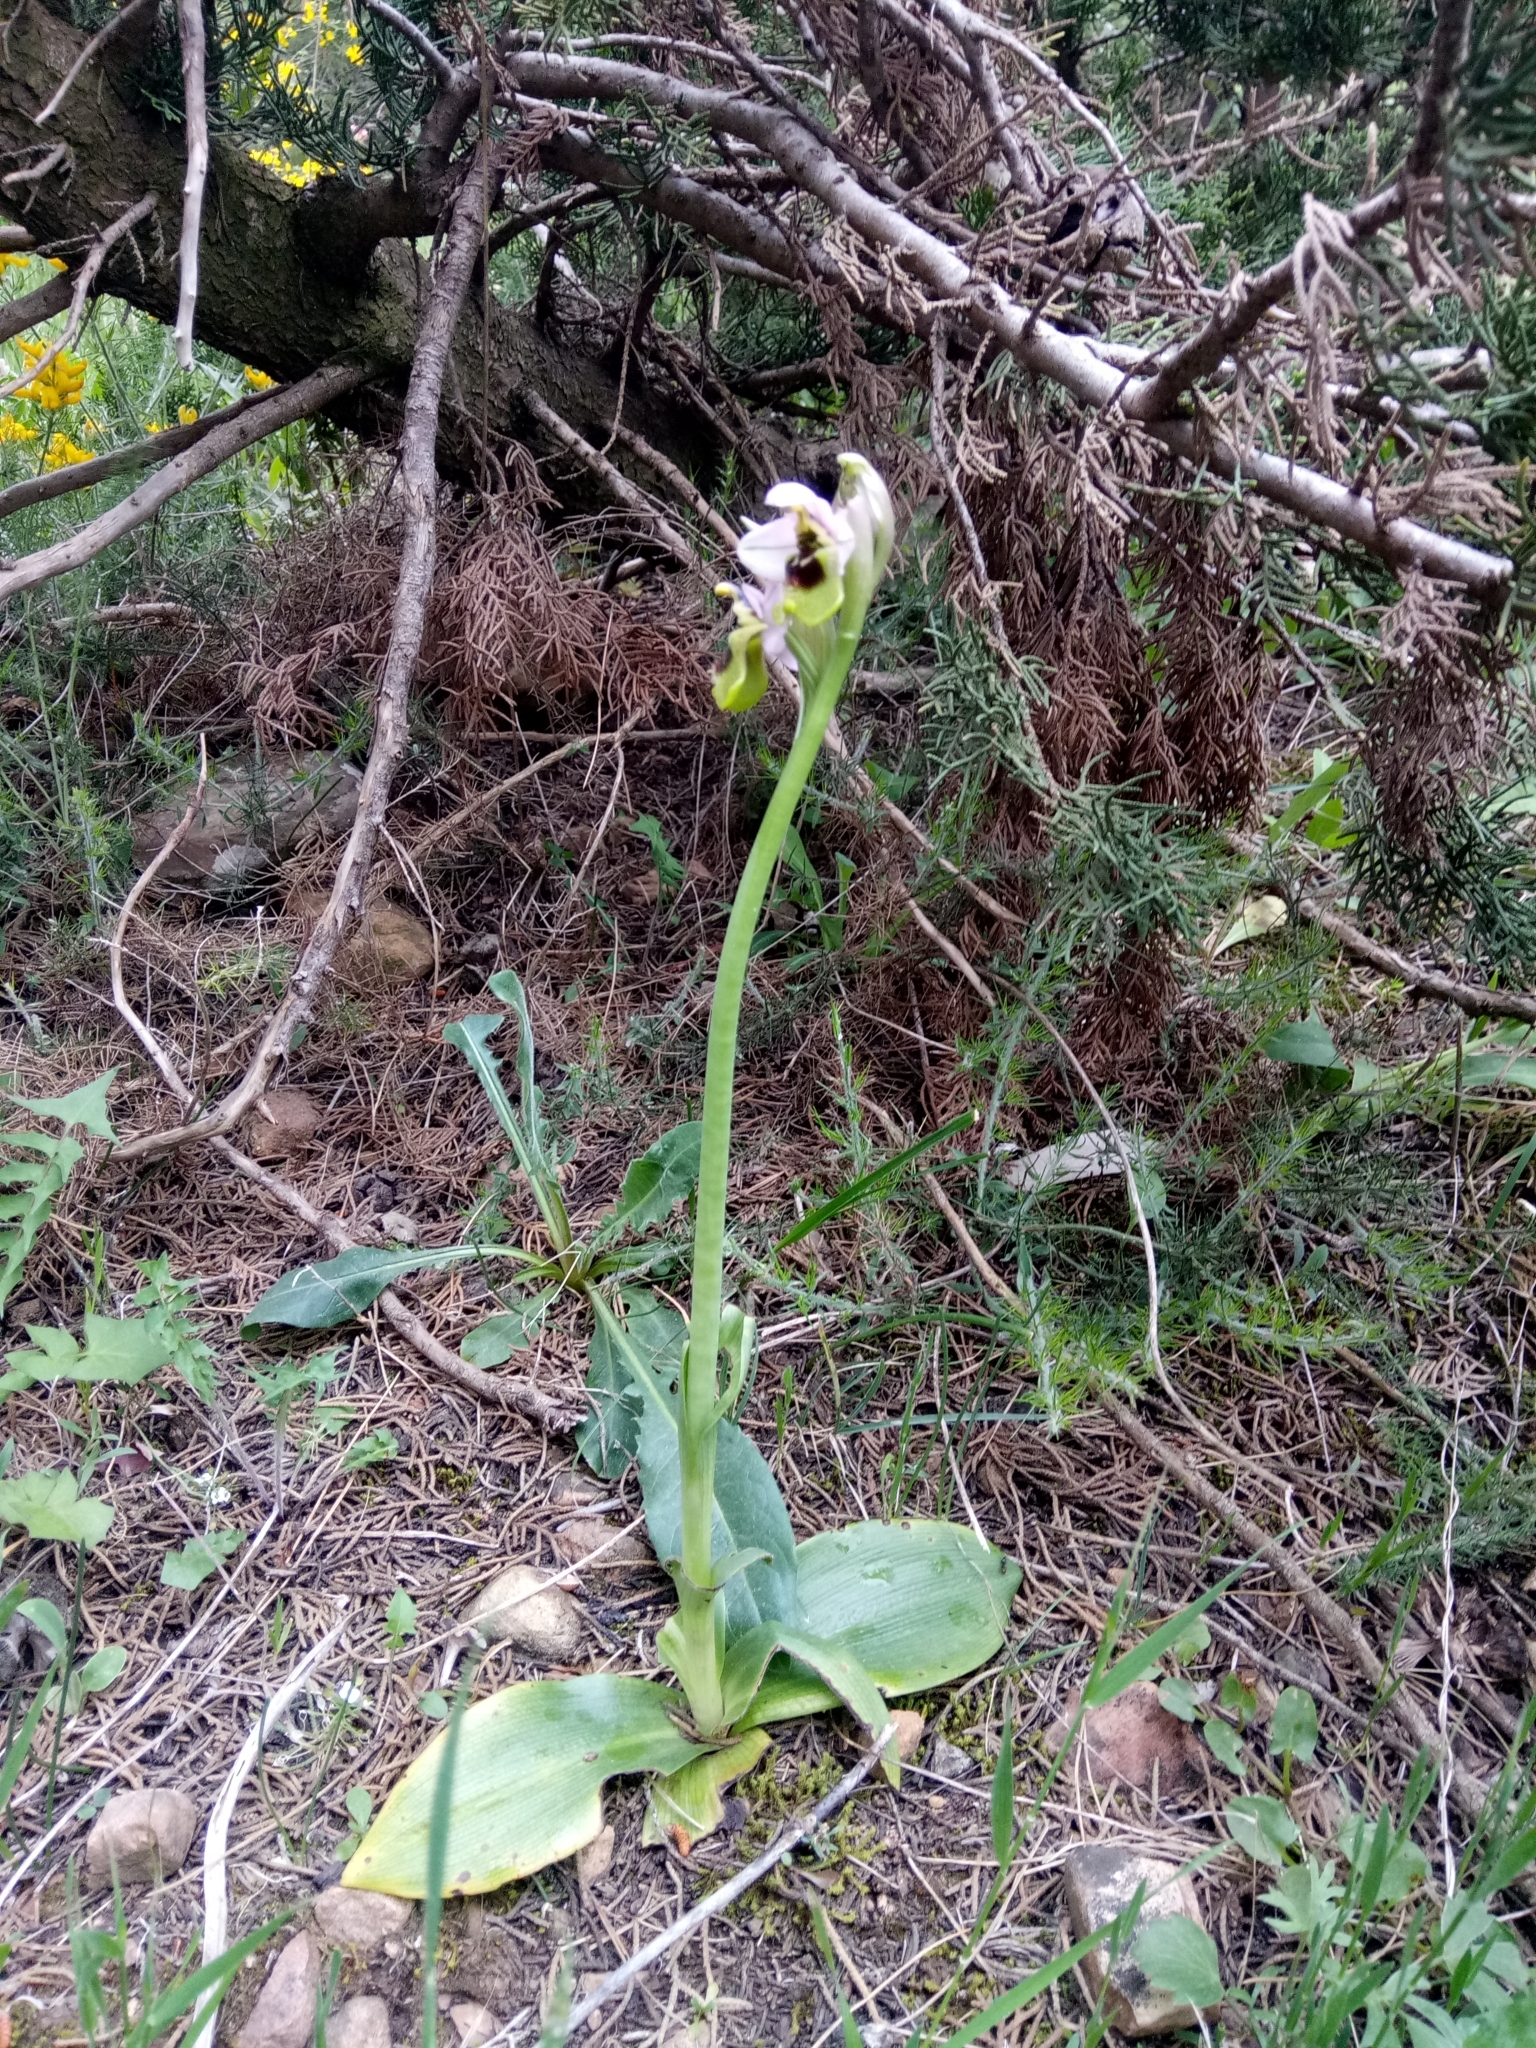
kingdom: Plantae
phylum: Tracheophyta
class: Liliopsida
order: Asparagales
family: Orchidaceae
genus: Ophrys
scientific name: Ophrys tenthredinifera
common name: Sawfly orchid
